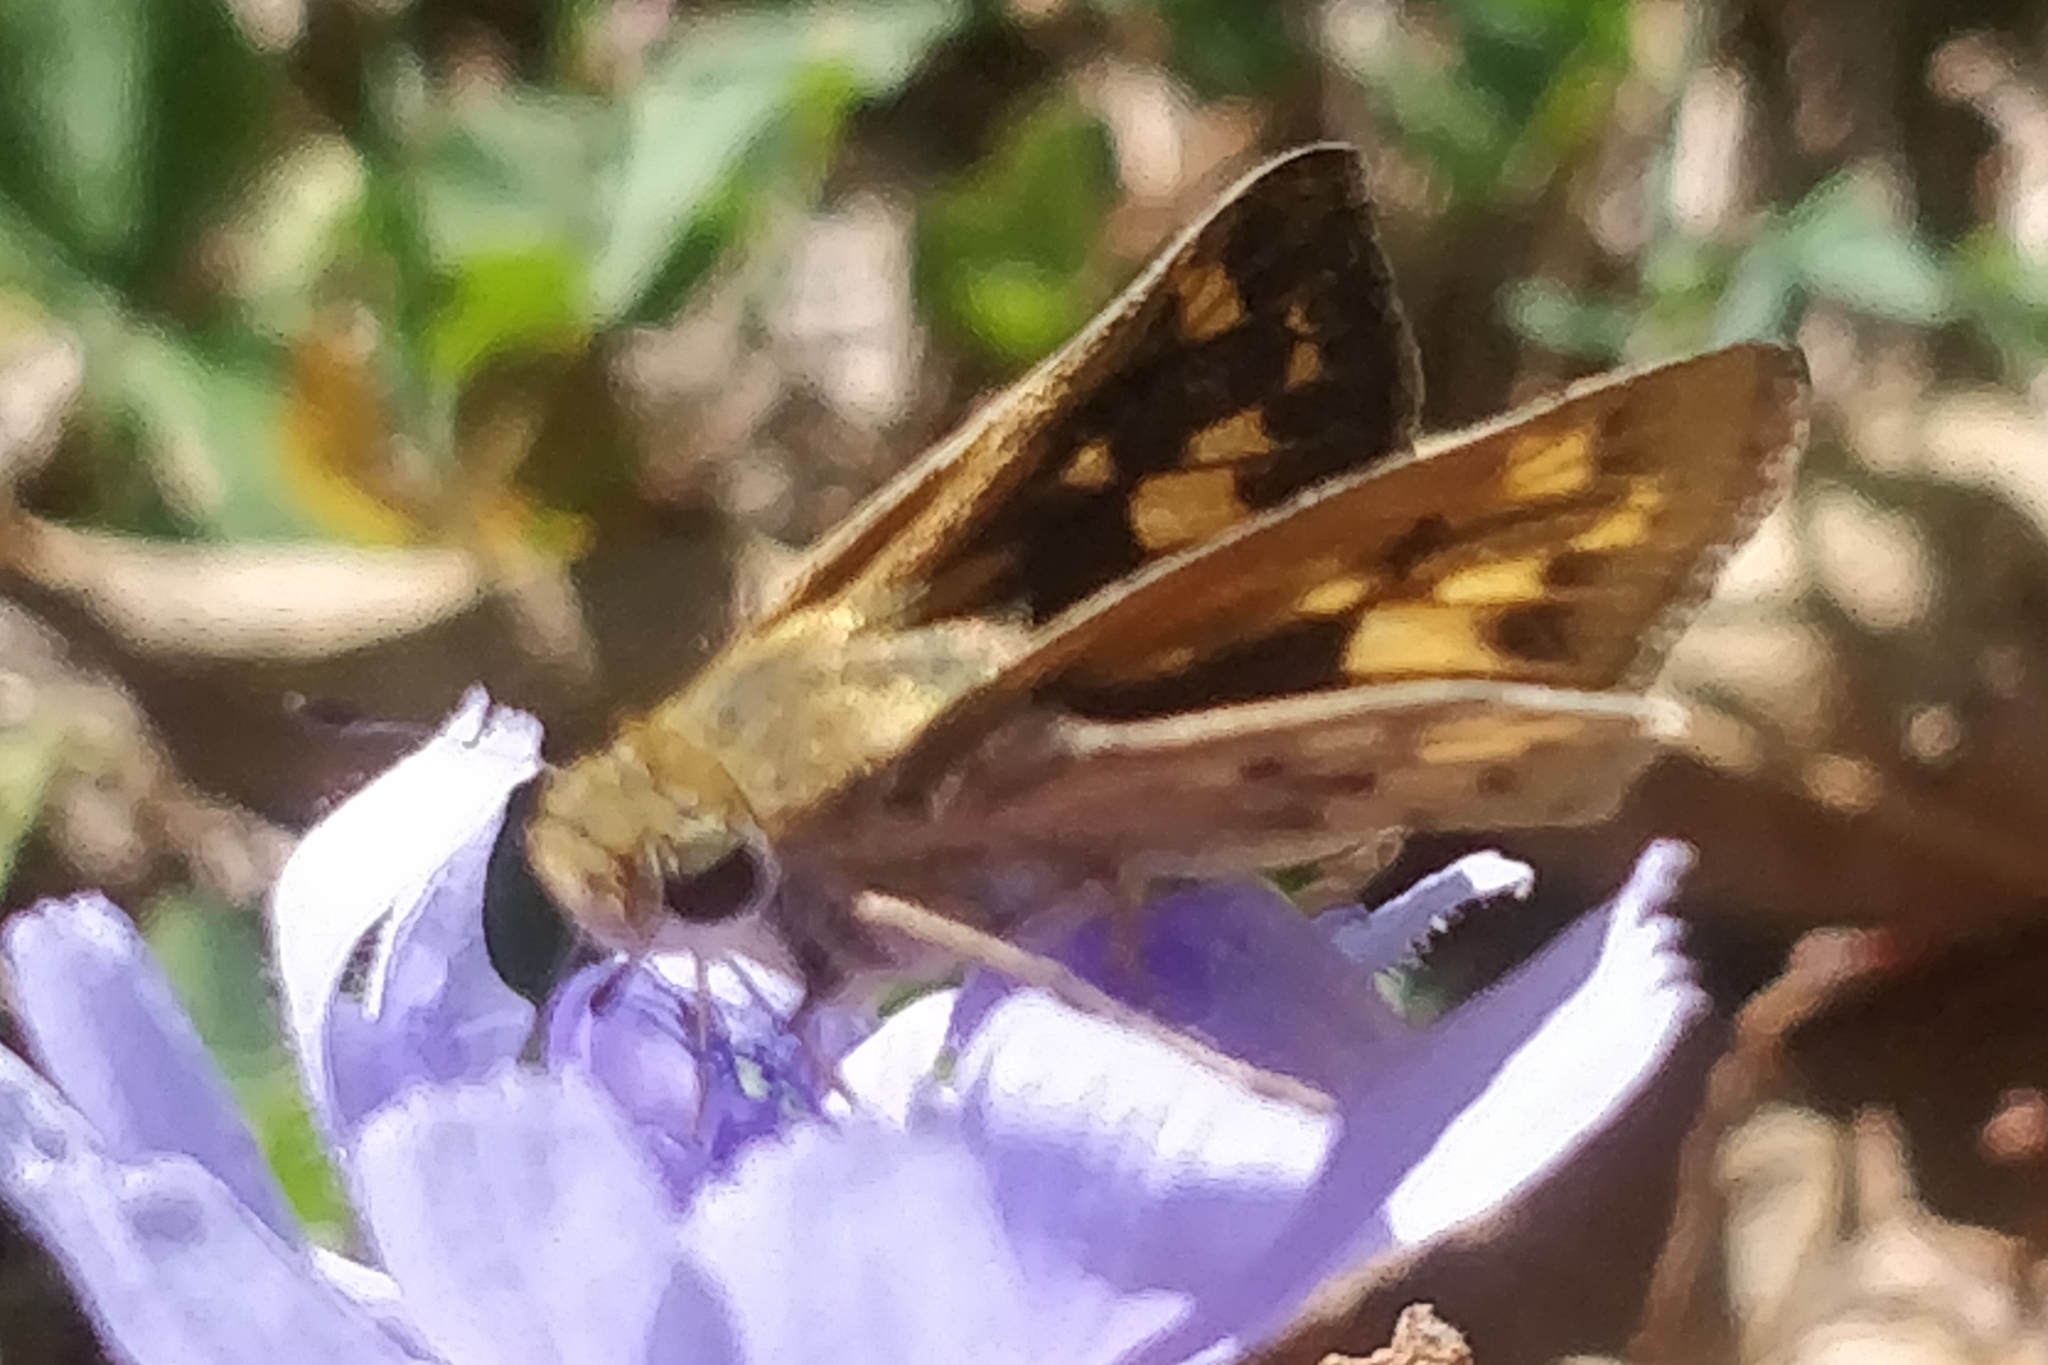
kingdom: Animalia
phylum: Arthropoda
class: Insecta
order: Lepidoptera
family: Hesperiidae
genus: Hylephila
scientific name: Hylephila phyleus
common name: Fiery skipper
